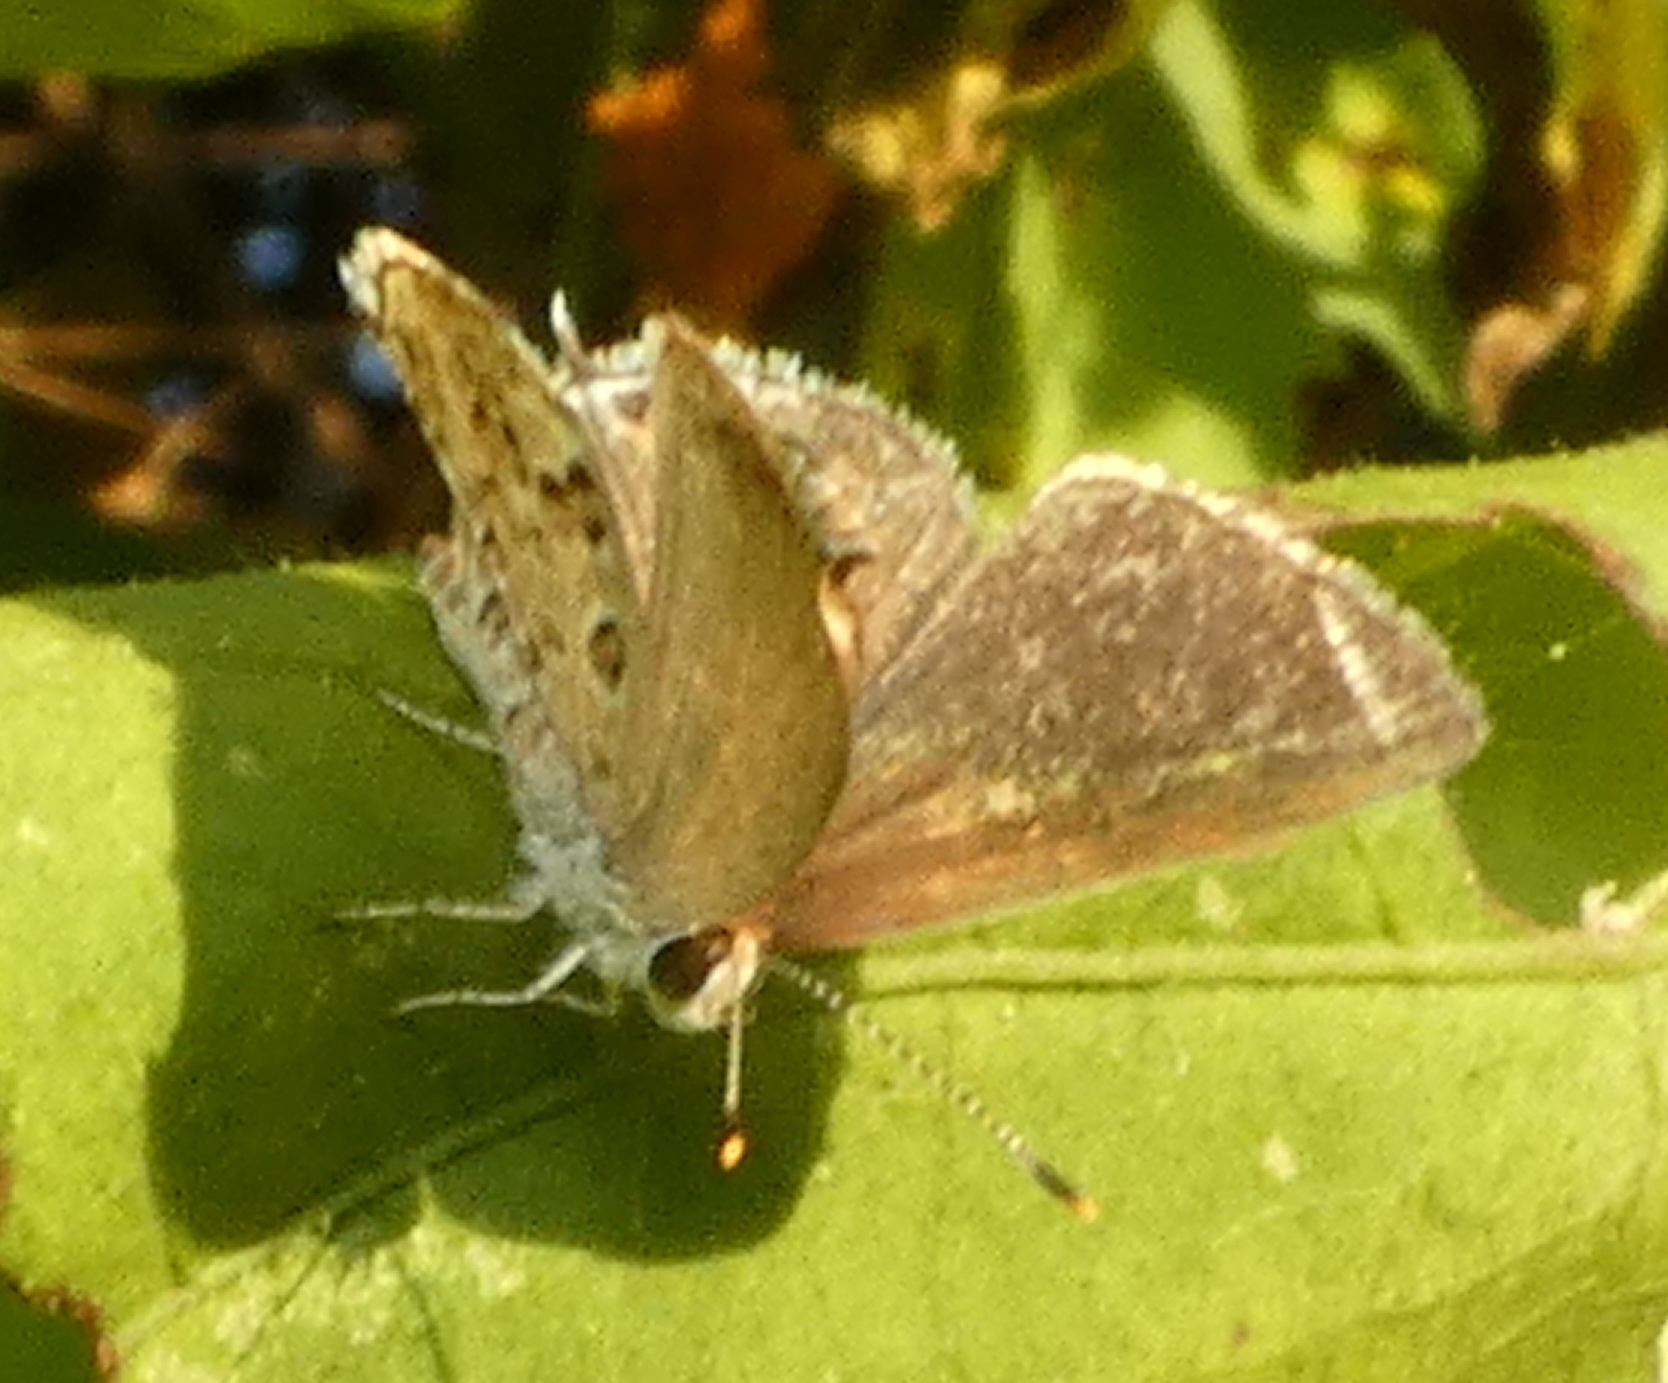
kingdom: Animalia
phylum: Arthropoda
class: Insecta
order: Lepidoptera
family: Lycaenidae
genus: Strymon
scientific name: Strymon astiocha
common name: Gray-spotted scrub-hairstreak
